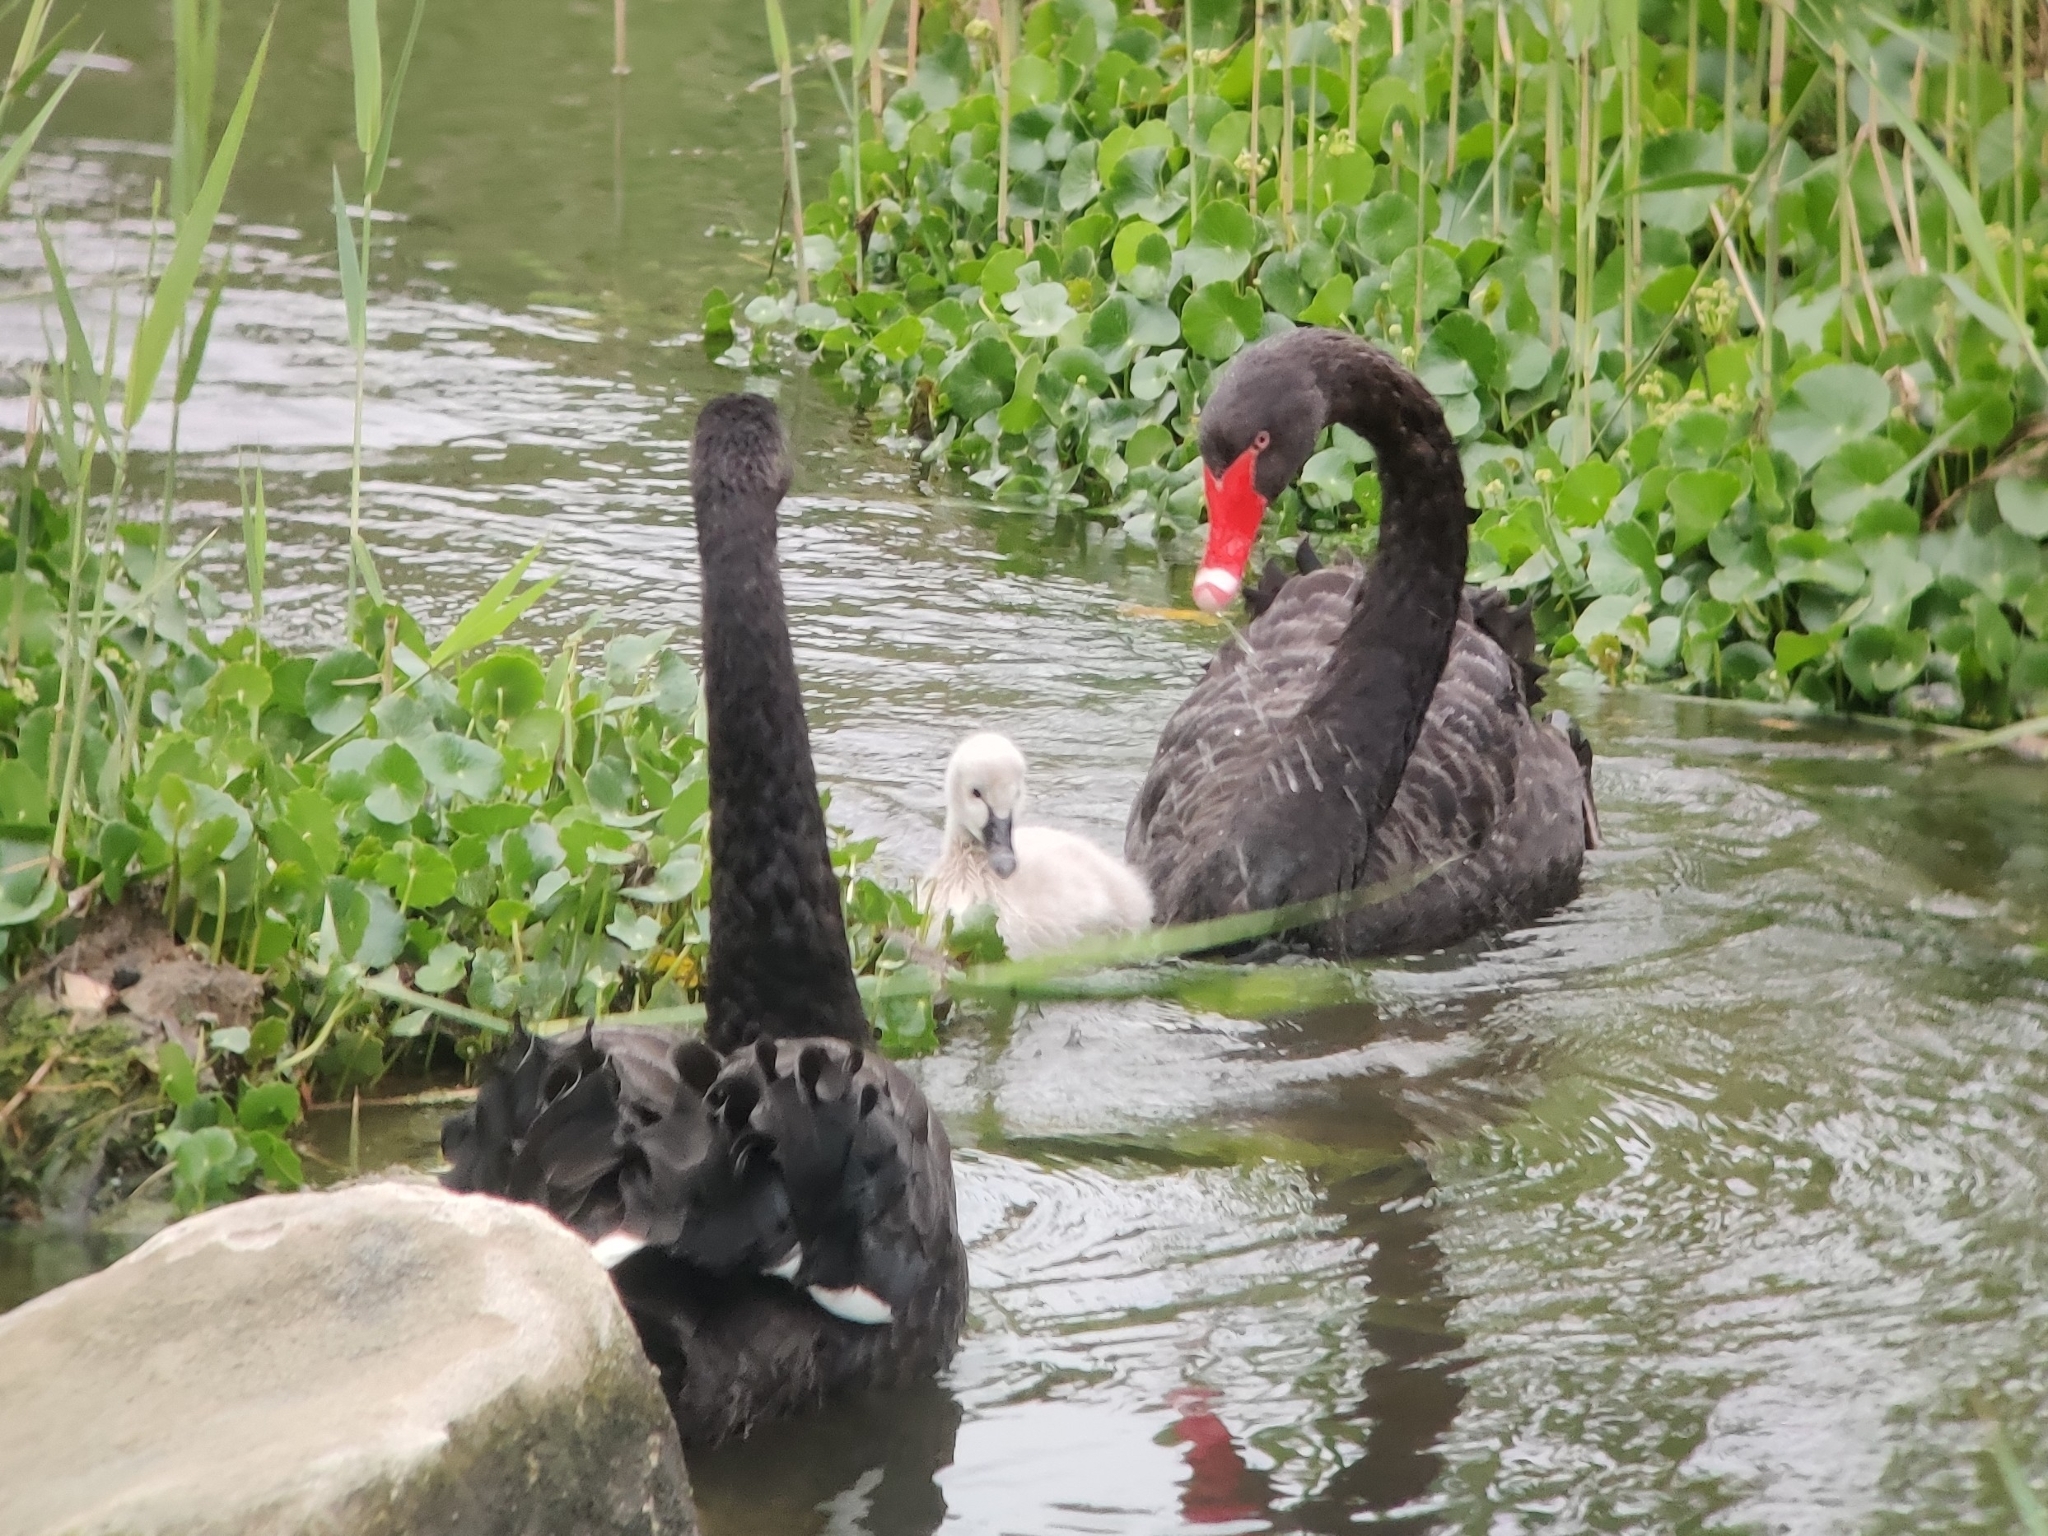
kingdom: Animalia
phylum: Chordata
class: Aves
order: Anseriformes
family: Anatidae
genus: Cygnus
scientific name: Cygnus atratus
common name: Black swan
